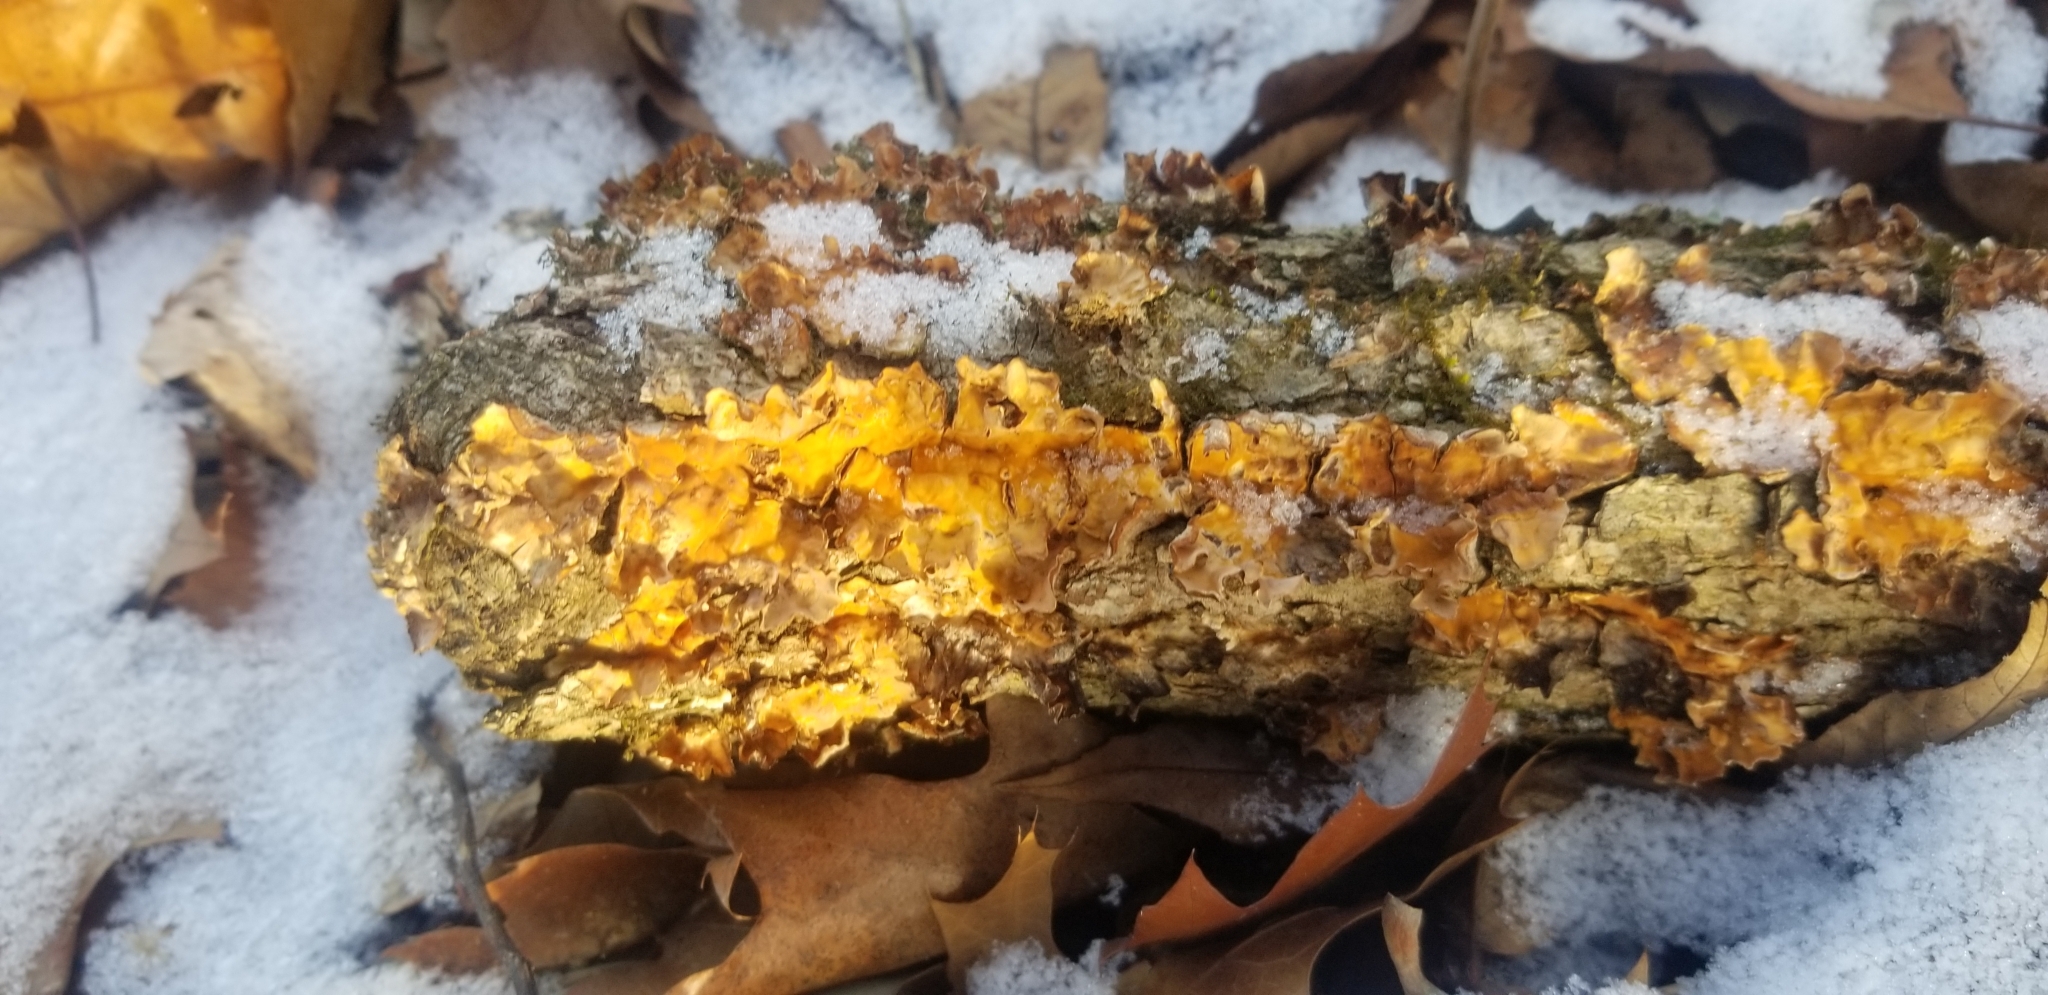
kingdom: Fungi
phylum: Basidiomycota
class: Agaricomycetes
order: Russulales
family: Stereaceae
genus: Stereum
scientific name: Stereum complicatum
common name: Crowded parchment
